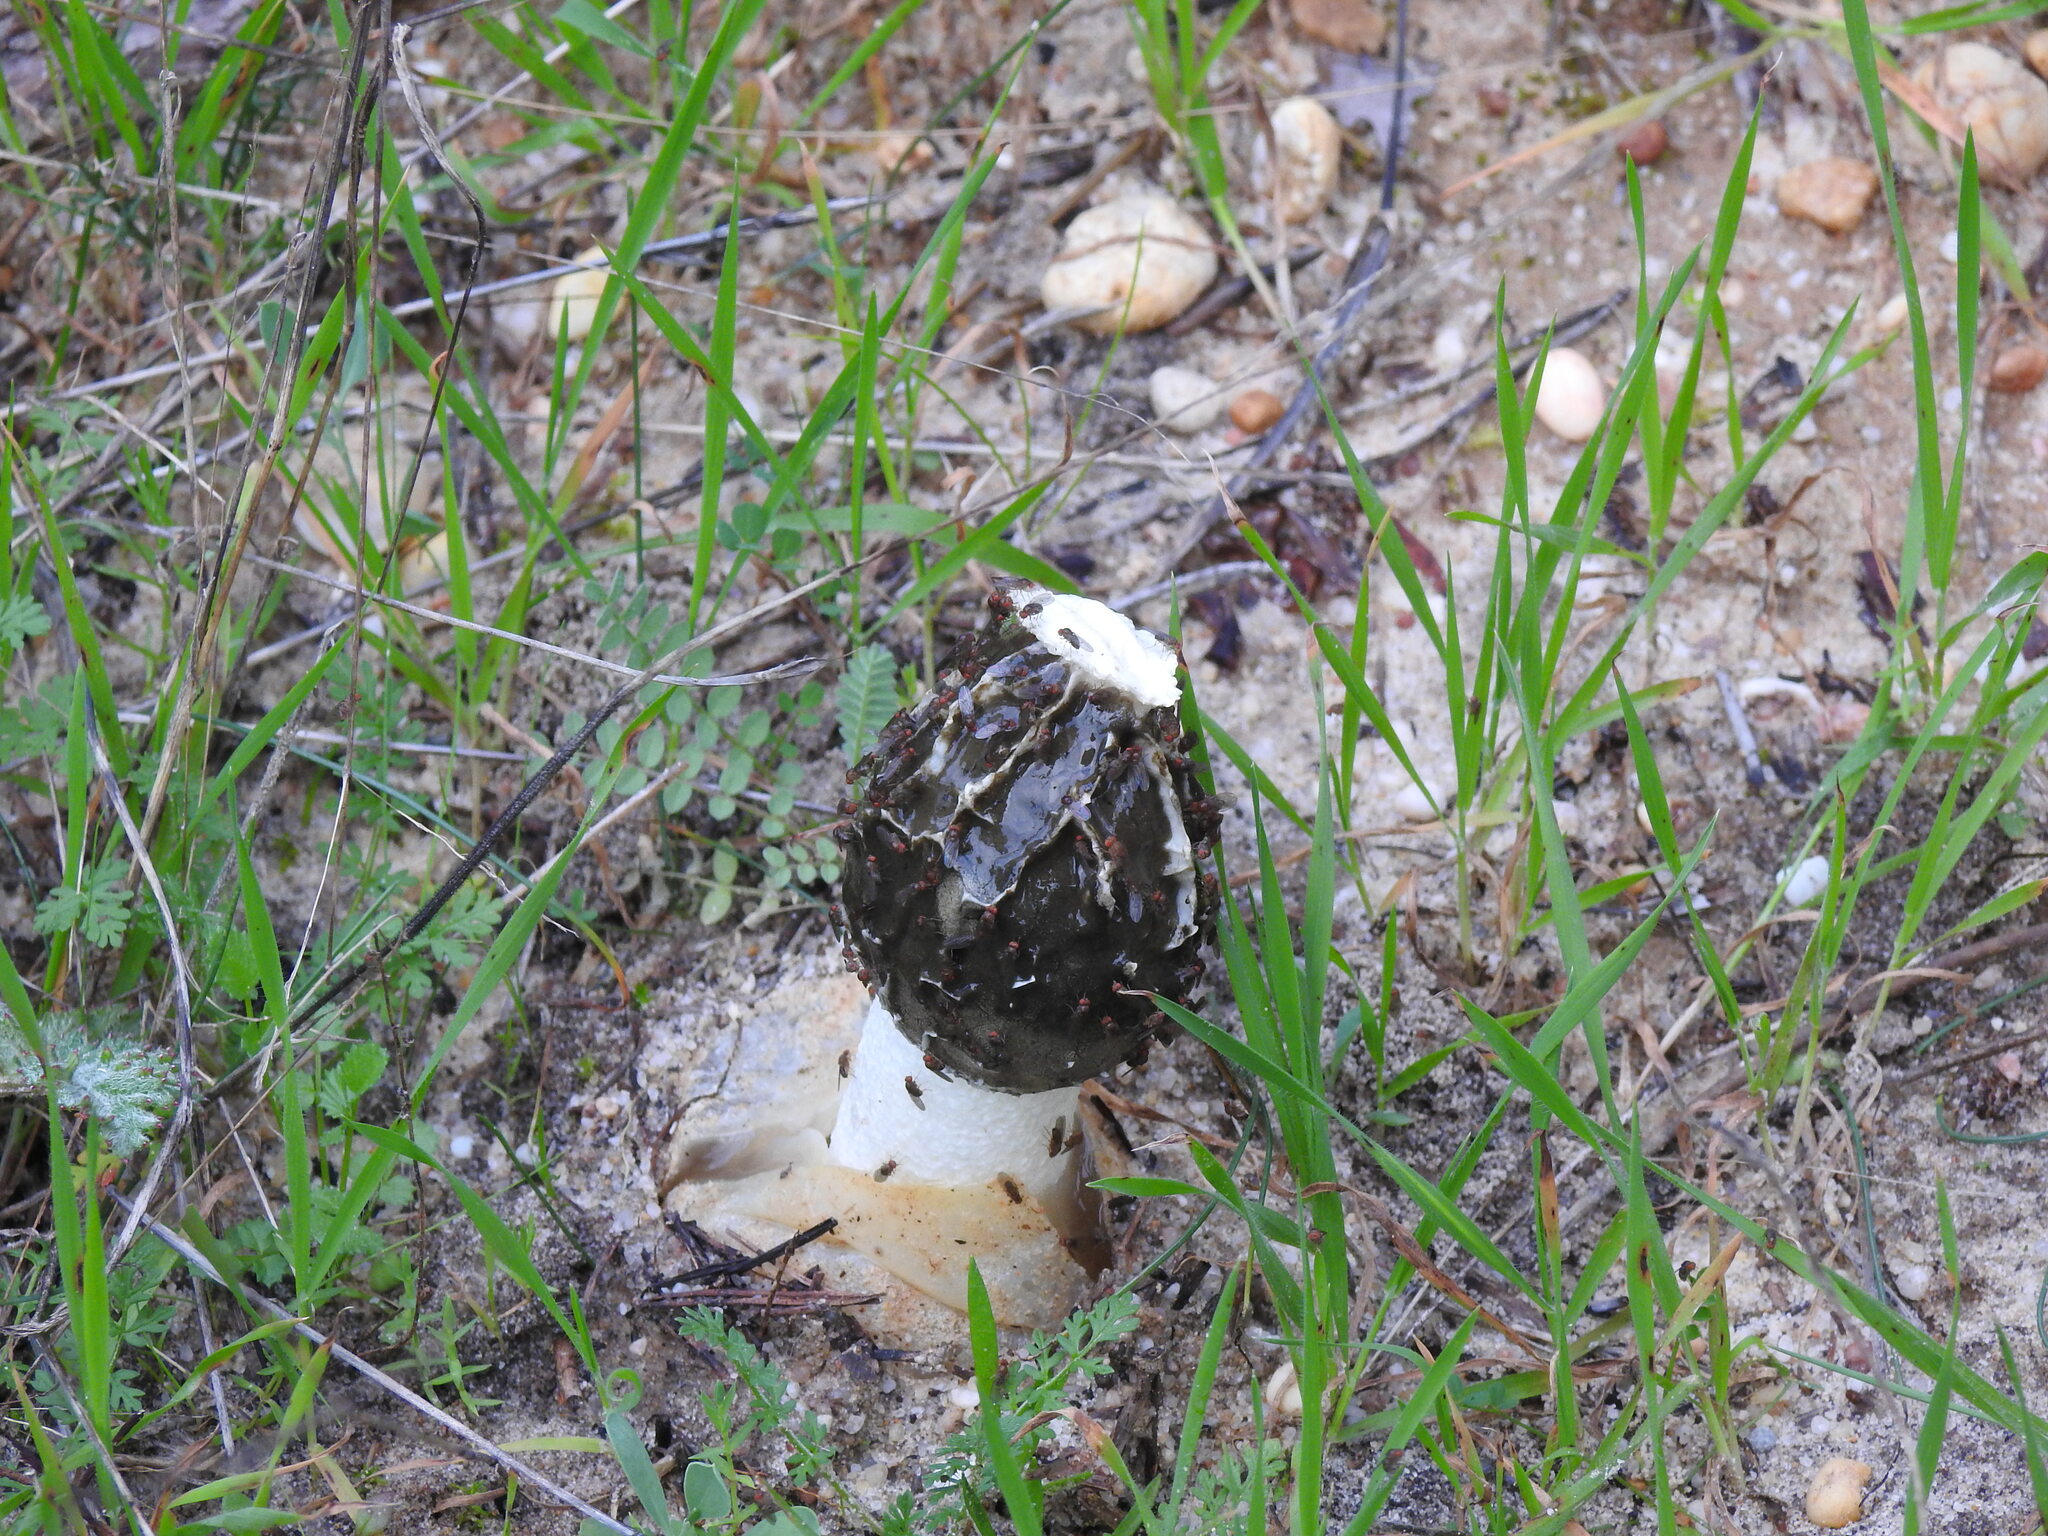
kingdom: Fungi
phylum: Basidiomycota
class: Agaricomycetes
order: Phallales
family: Phallaceae
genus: Phallus
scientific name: Phallus impudicus
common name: Common stinkhorn
